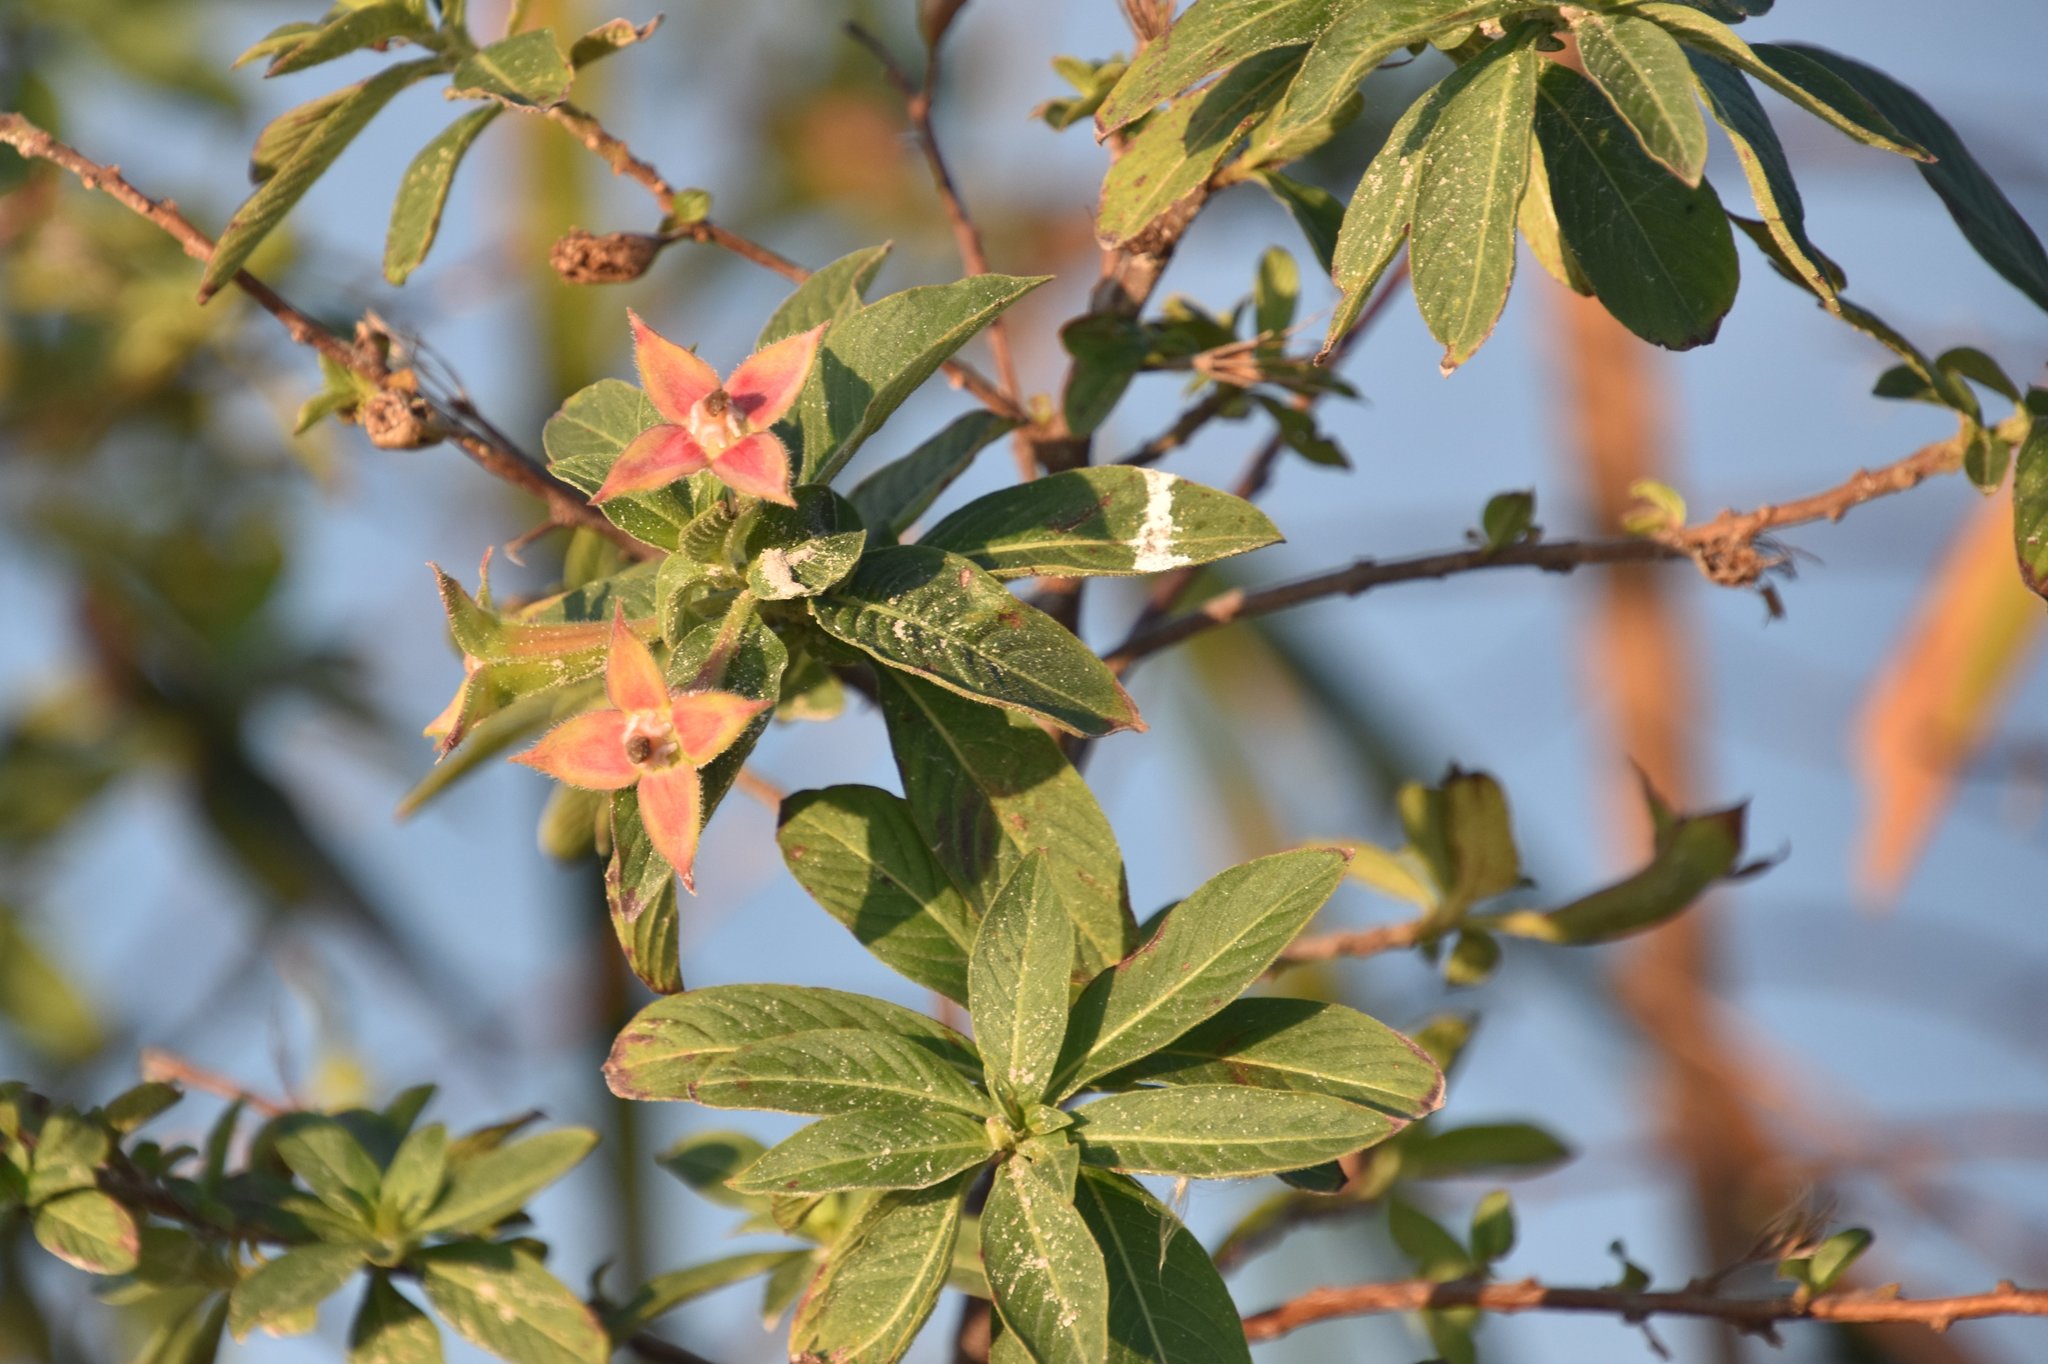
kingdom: Plantae
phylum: Tracheophyta
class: Magnoliopsida
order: Myrtales
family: Onagraceae
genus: Ludwigia
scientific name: Ludwigia peruviana
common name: Peruvian primrose-willow
